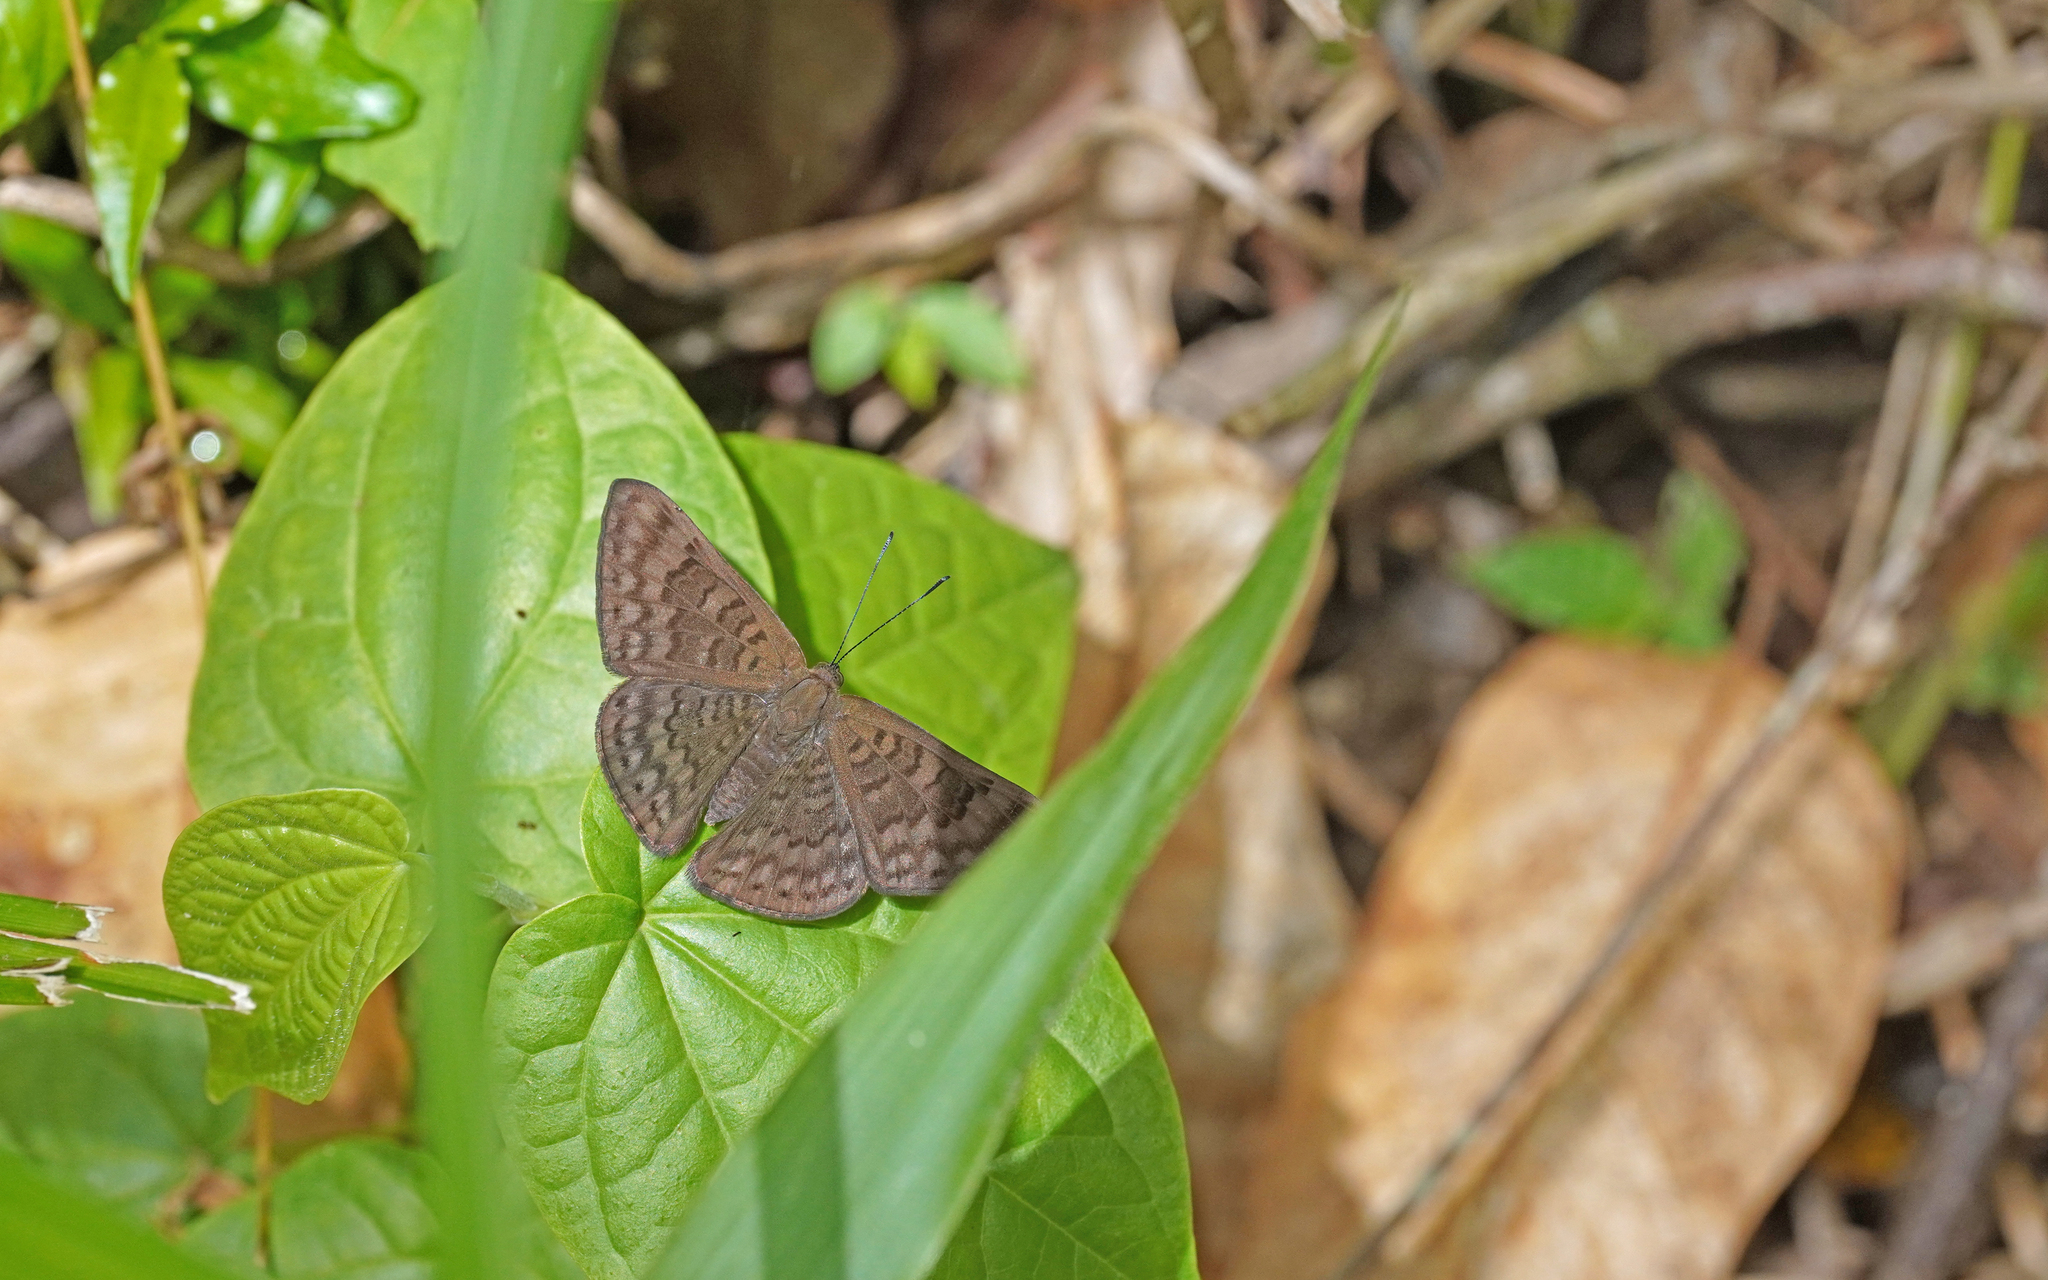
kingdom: Animalia
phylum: Arthropoda
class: Insecta
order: Lepidoptera
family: Lycaenidae
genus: Emesis
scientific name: Emesis ocypore
